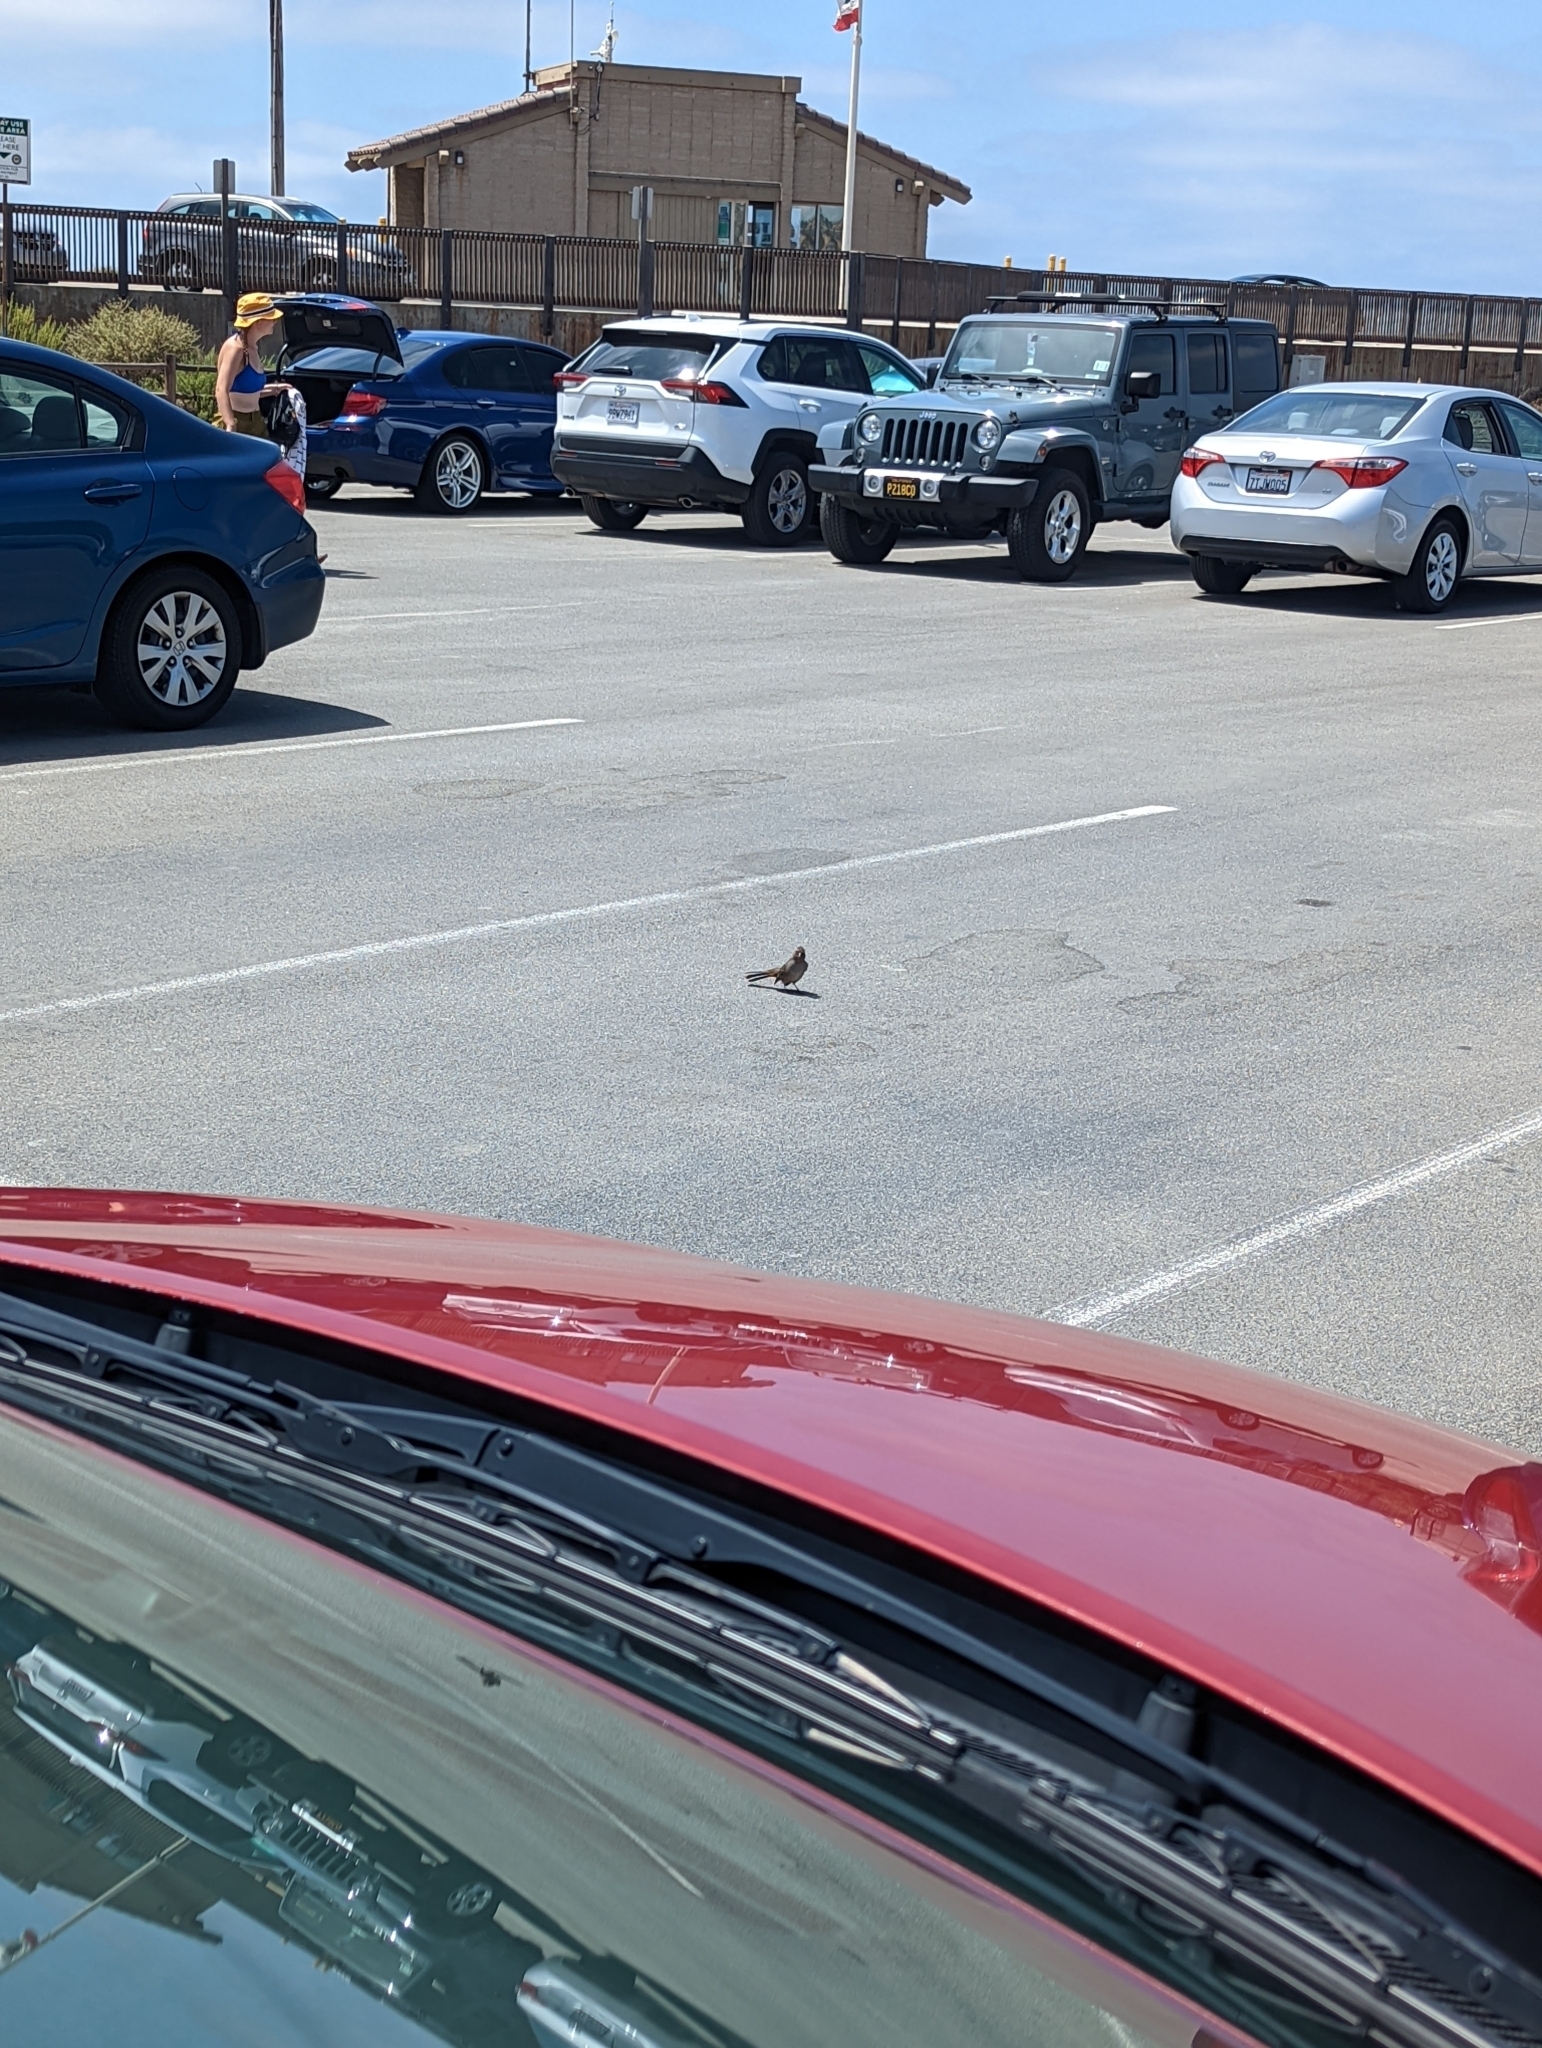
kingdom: Animalia
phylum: Chordata
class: Aves
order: Passeriformes
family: Passerellidae
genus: Melozone
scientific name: Melozone crissalis
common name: California towhee
